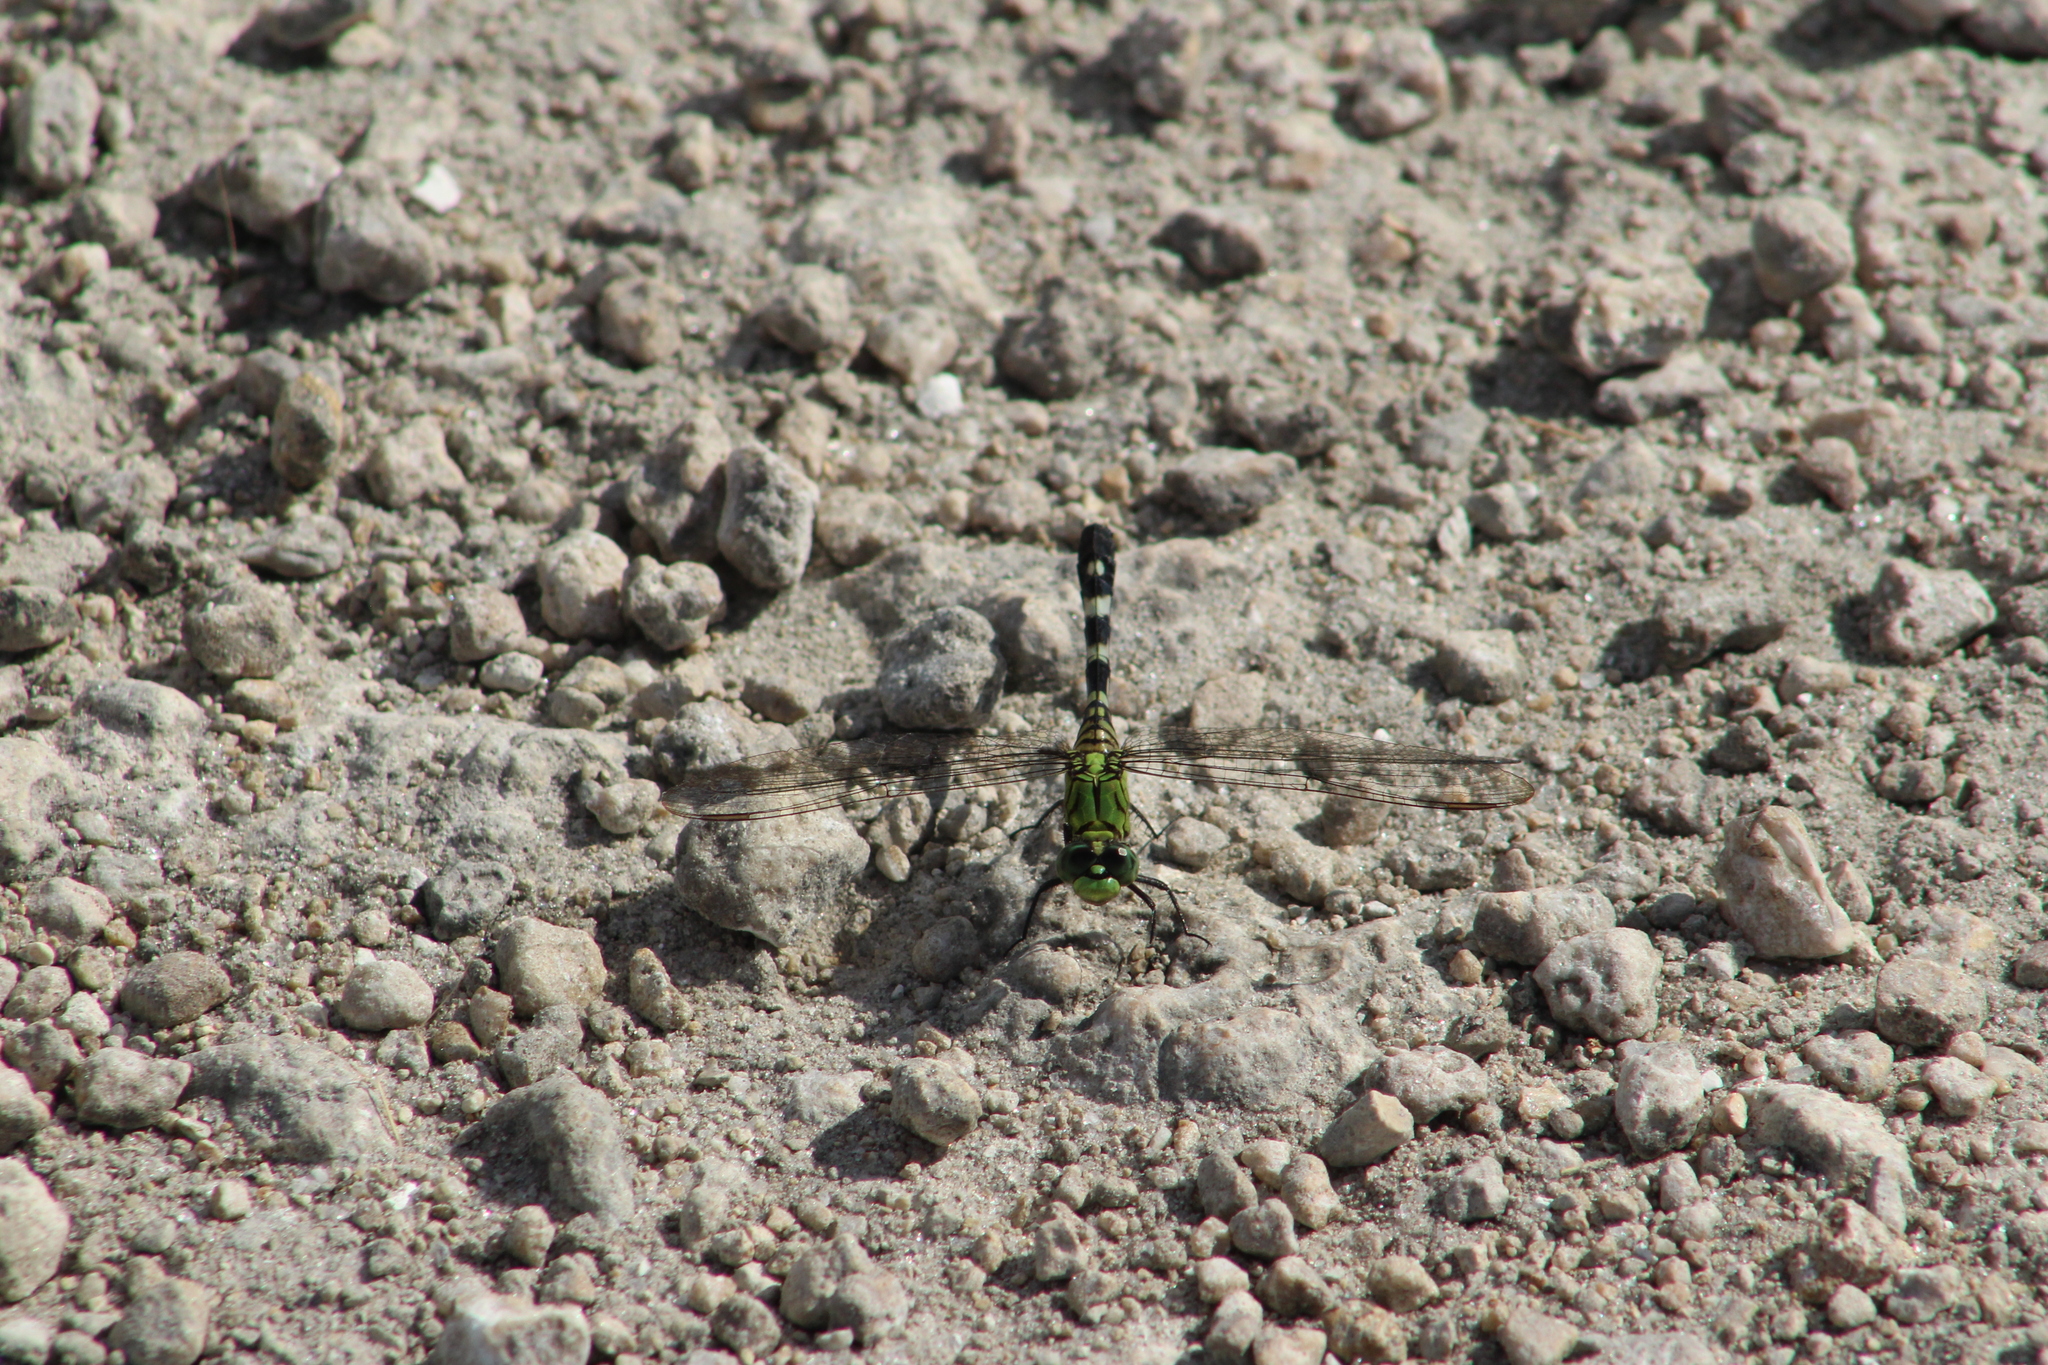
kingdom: Animalia
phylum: Arthropoda
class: Insecta
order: Odonata
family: Libellulidae
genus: Erythemis
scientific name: Erythemis simplicicollis
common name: Eastern pondhawk
